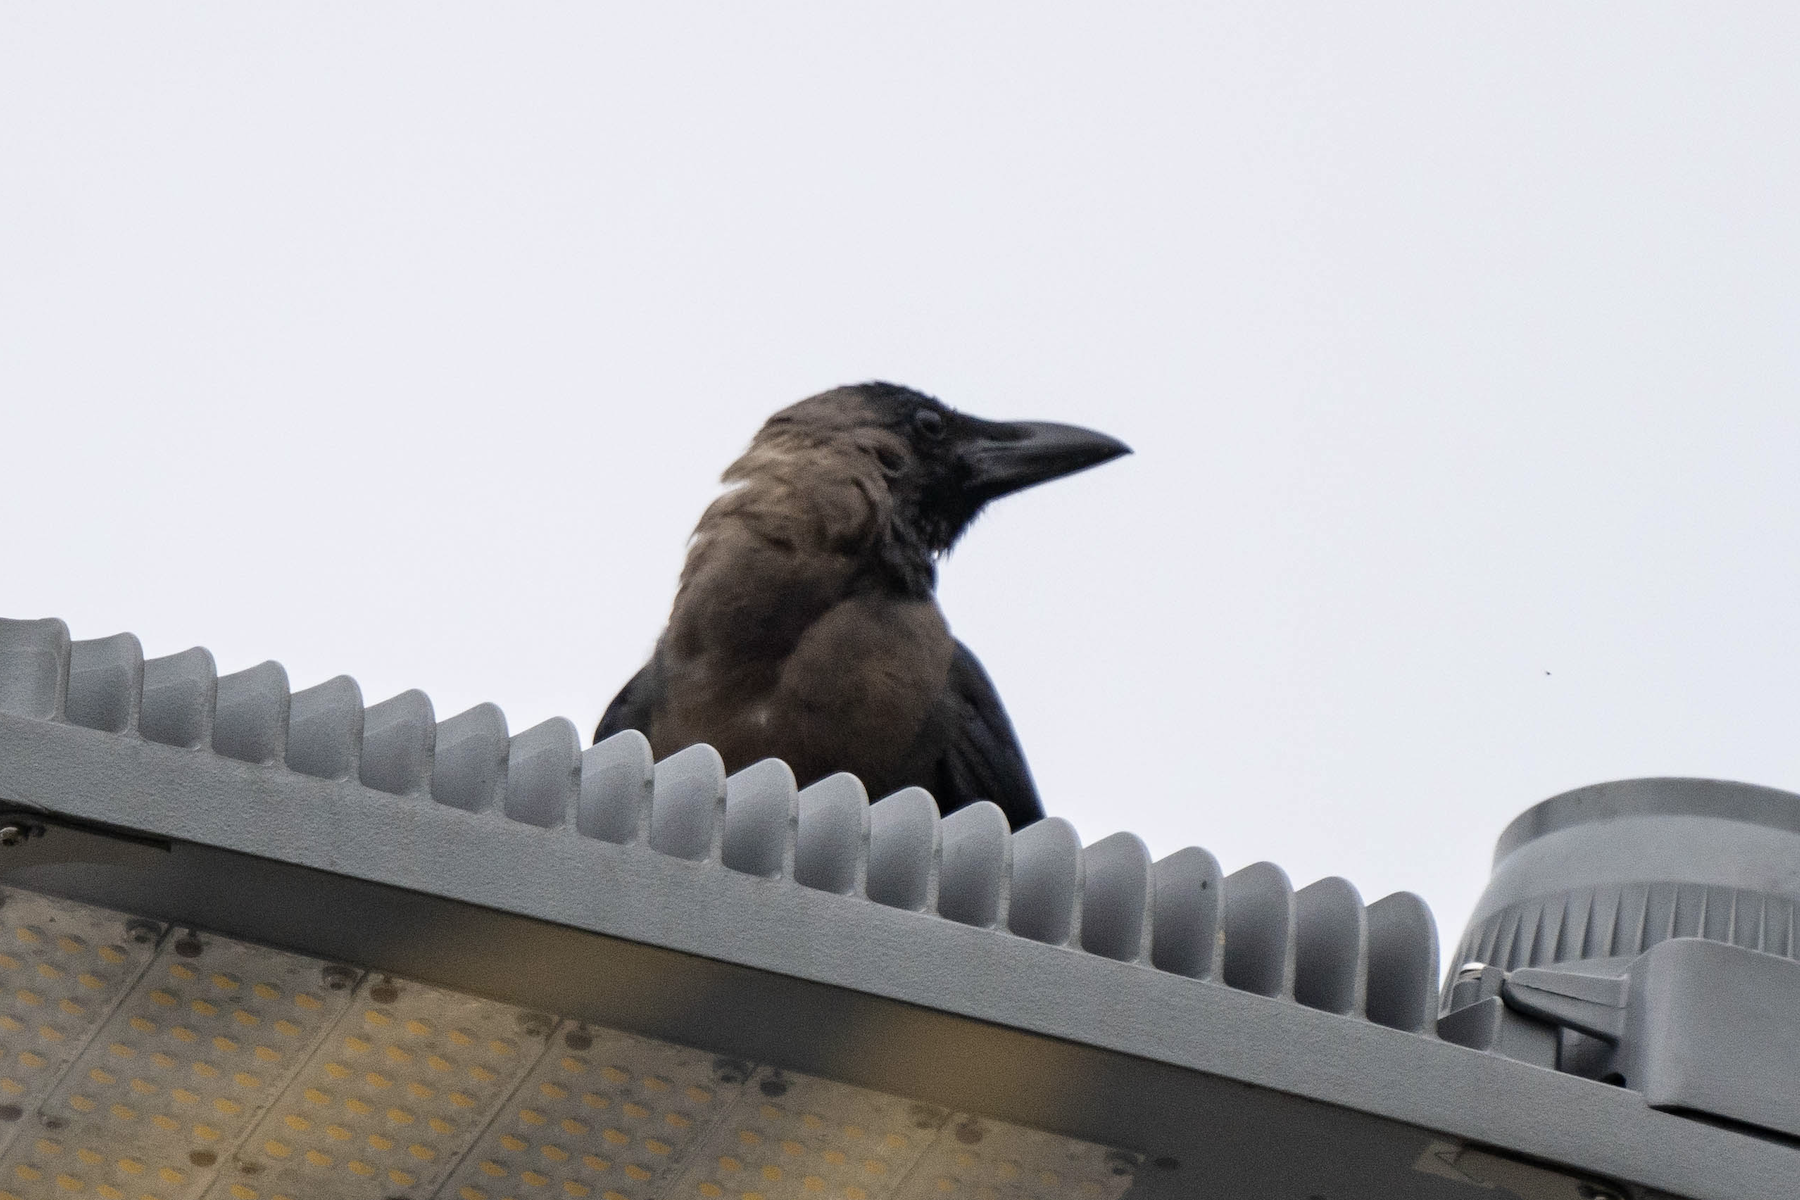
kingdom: Animalia
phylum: Chordata
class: Aves
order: Passeriformes
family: Corvidae
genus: Corvus
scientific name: Corvus splendens
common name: House crow
